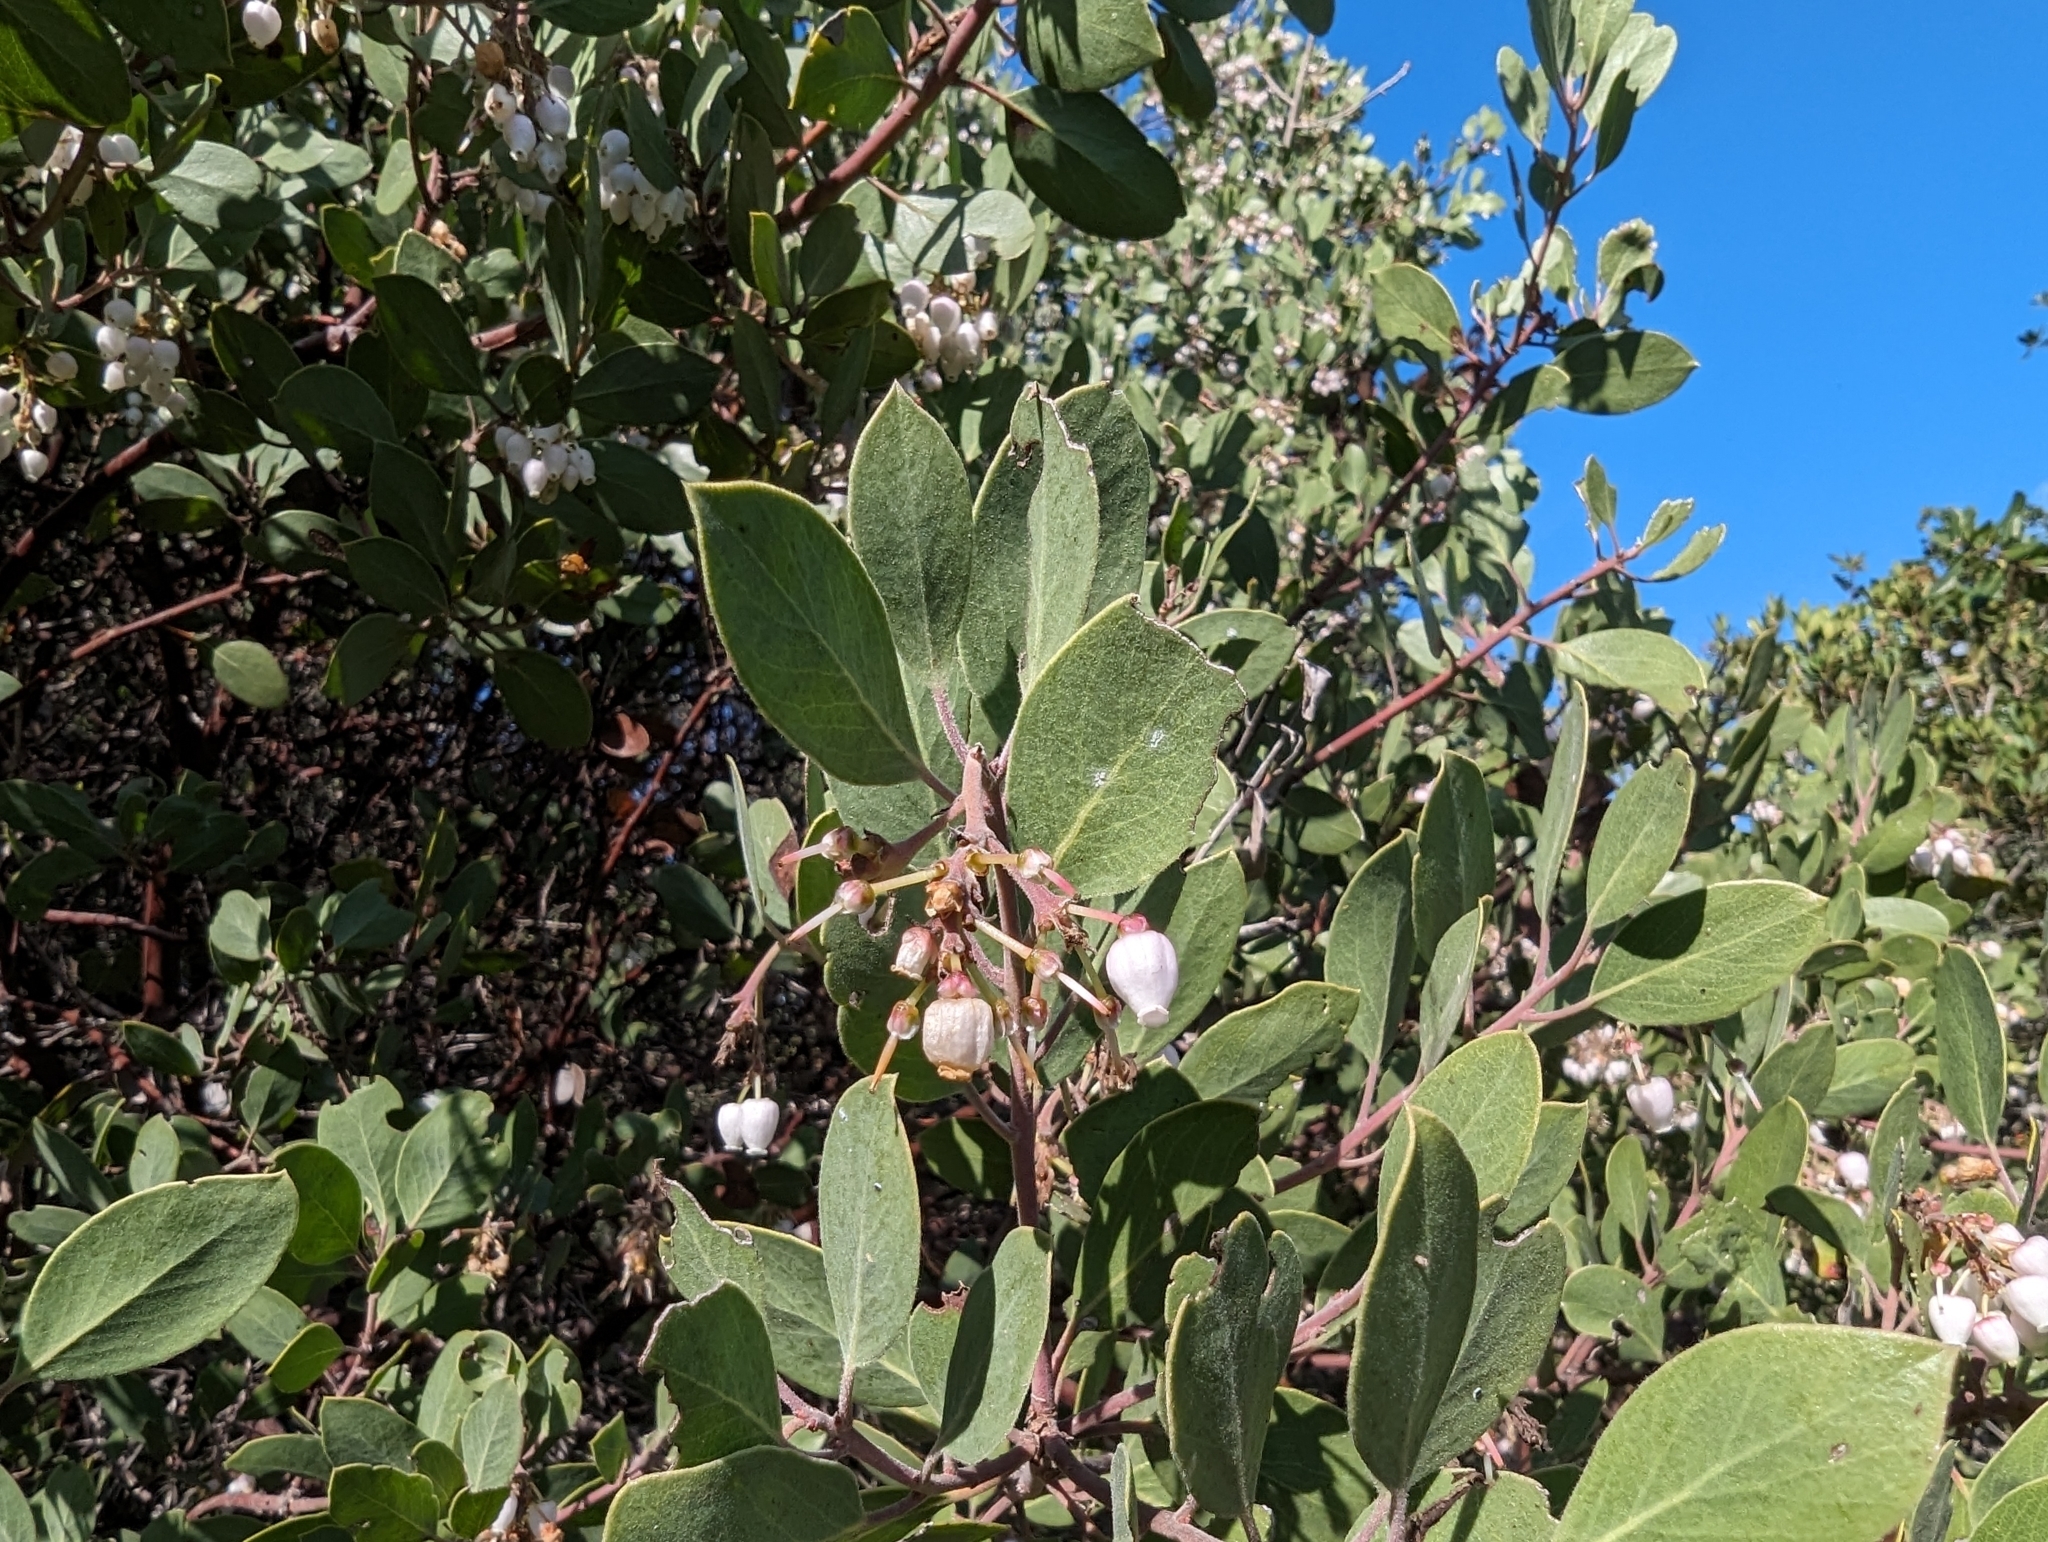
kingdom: Plantae
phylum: Tracheophyta
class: Magnoliopsida
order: Ericales
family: Ericaceae
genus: Arctostaphylos
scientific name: Arctostaphylos manzanita
